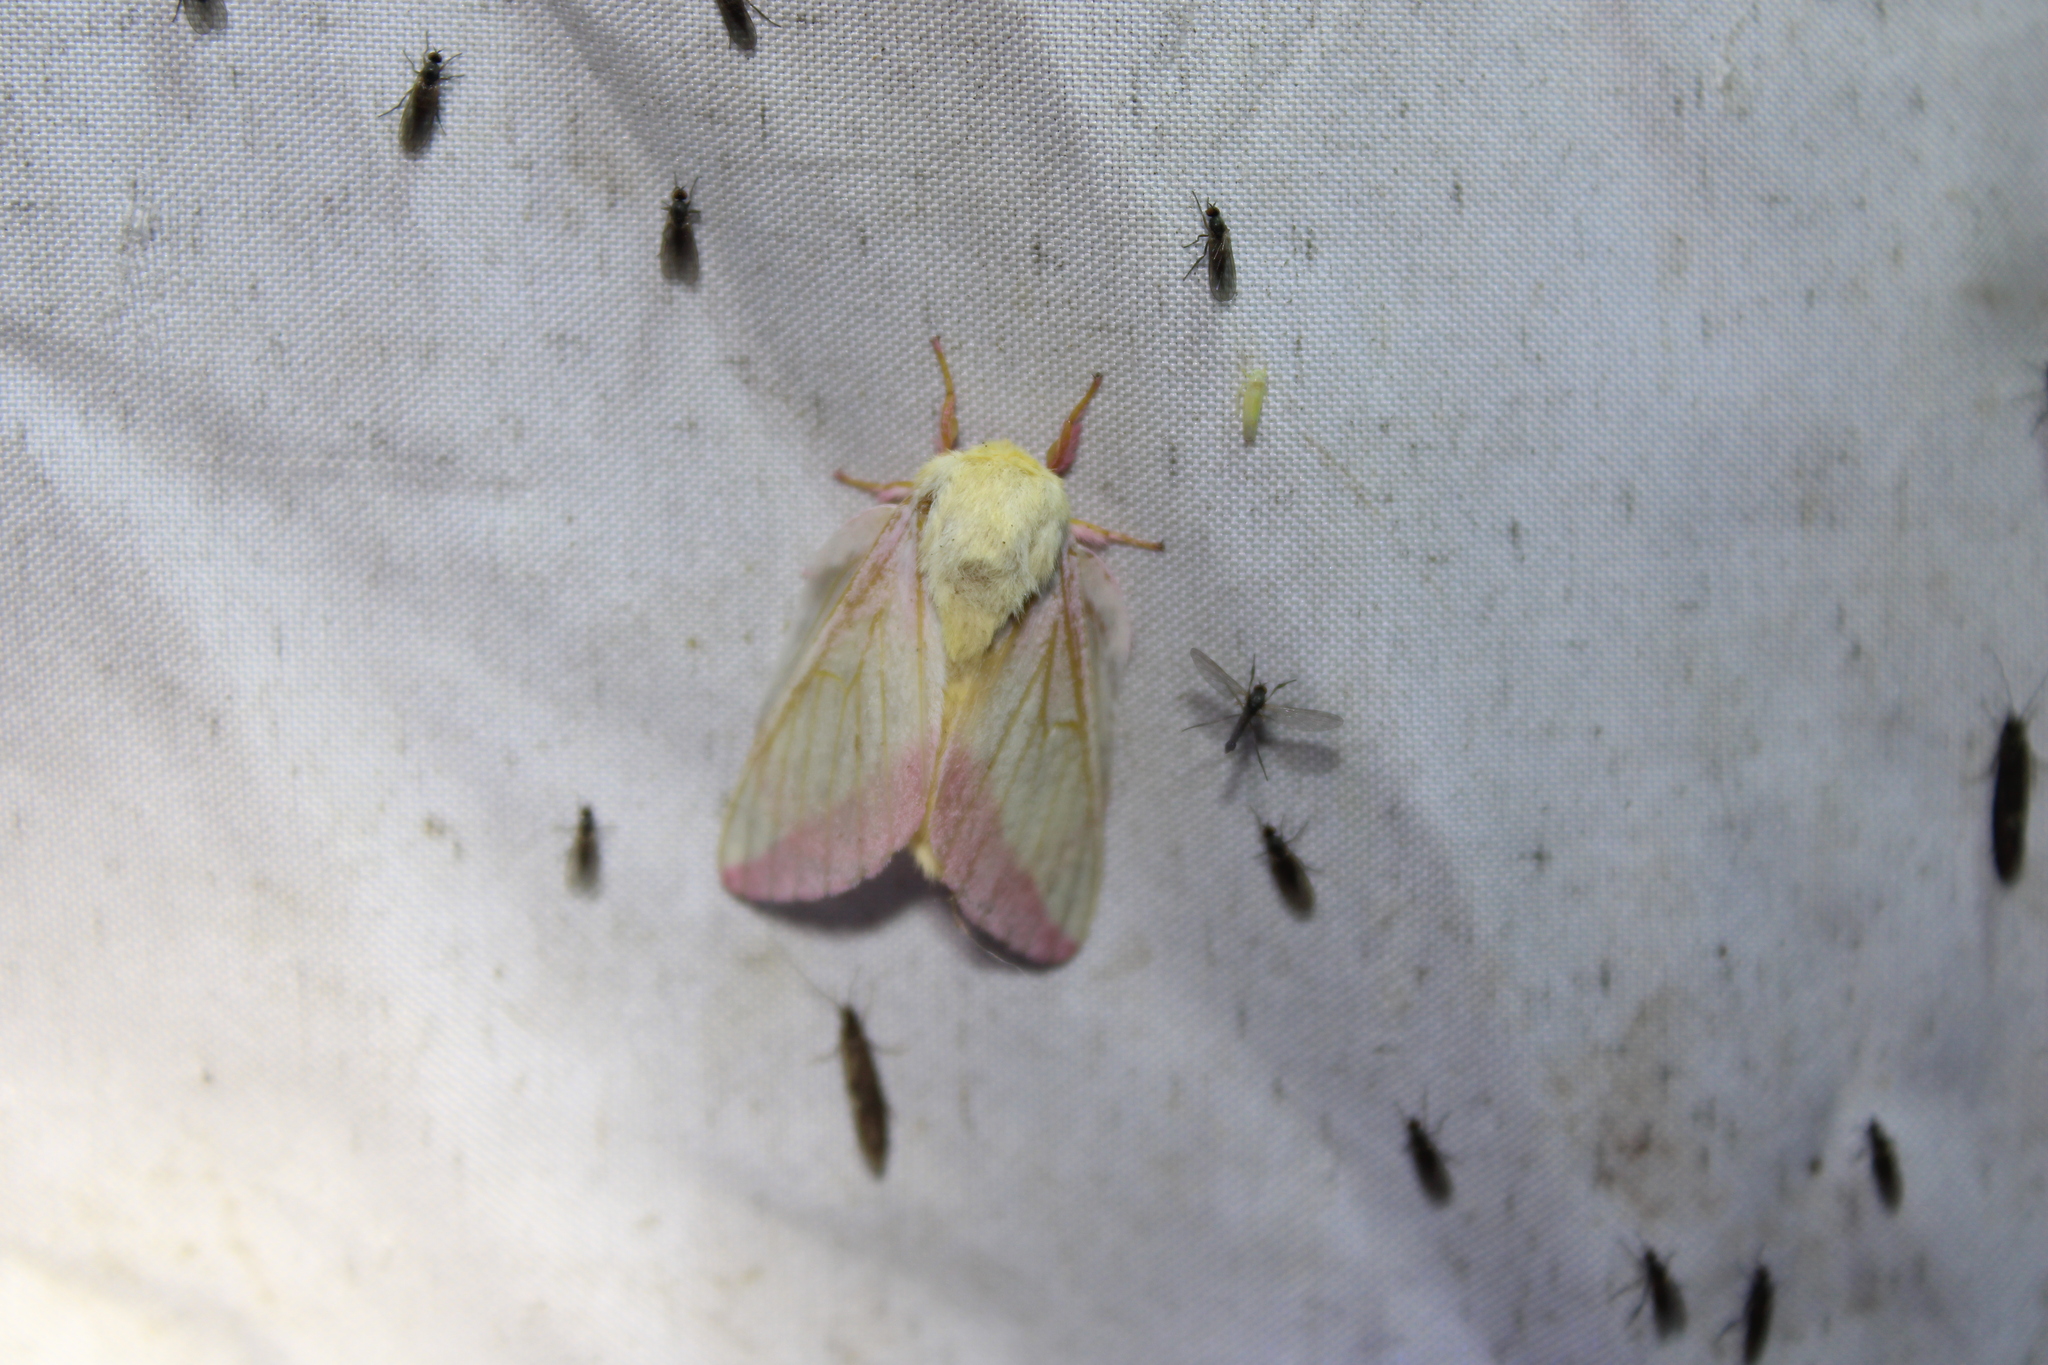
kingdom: Animalia
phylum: Arthropoda
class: Insecta
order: Lepidoptera
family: Saturniidae
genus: Dryocampa
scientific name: Dryocampa rubicunda
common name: Rosy maple moth
